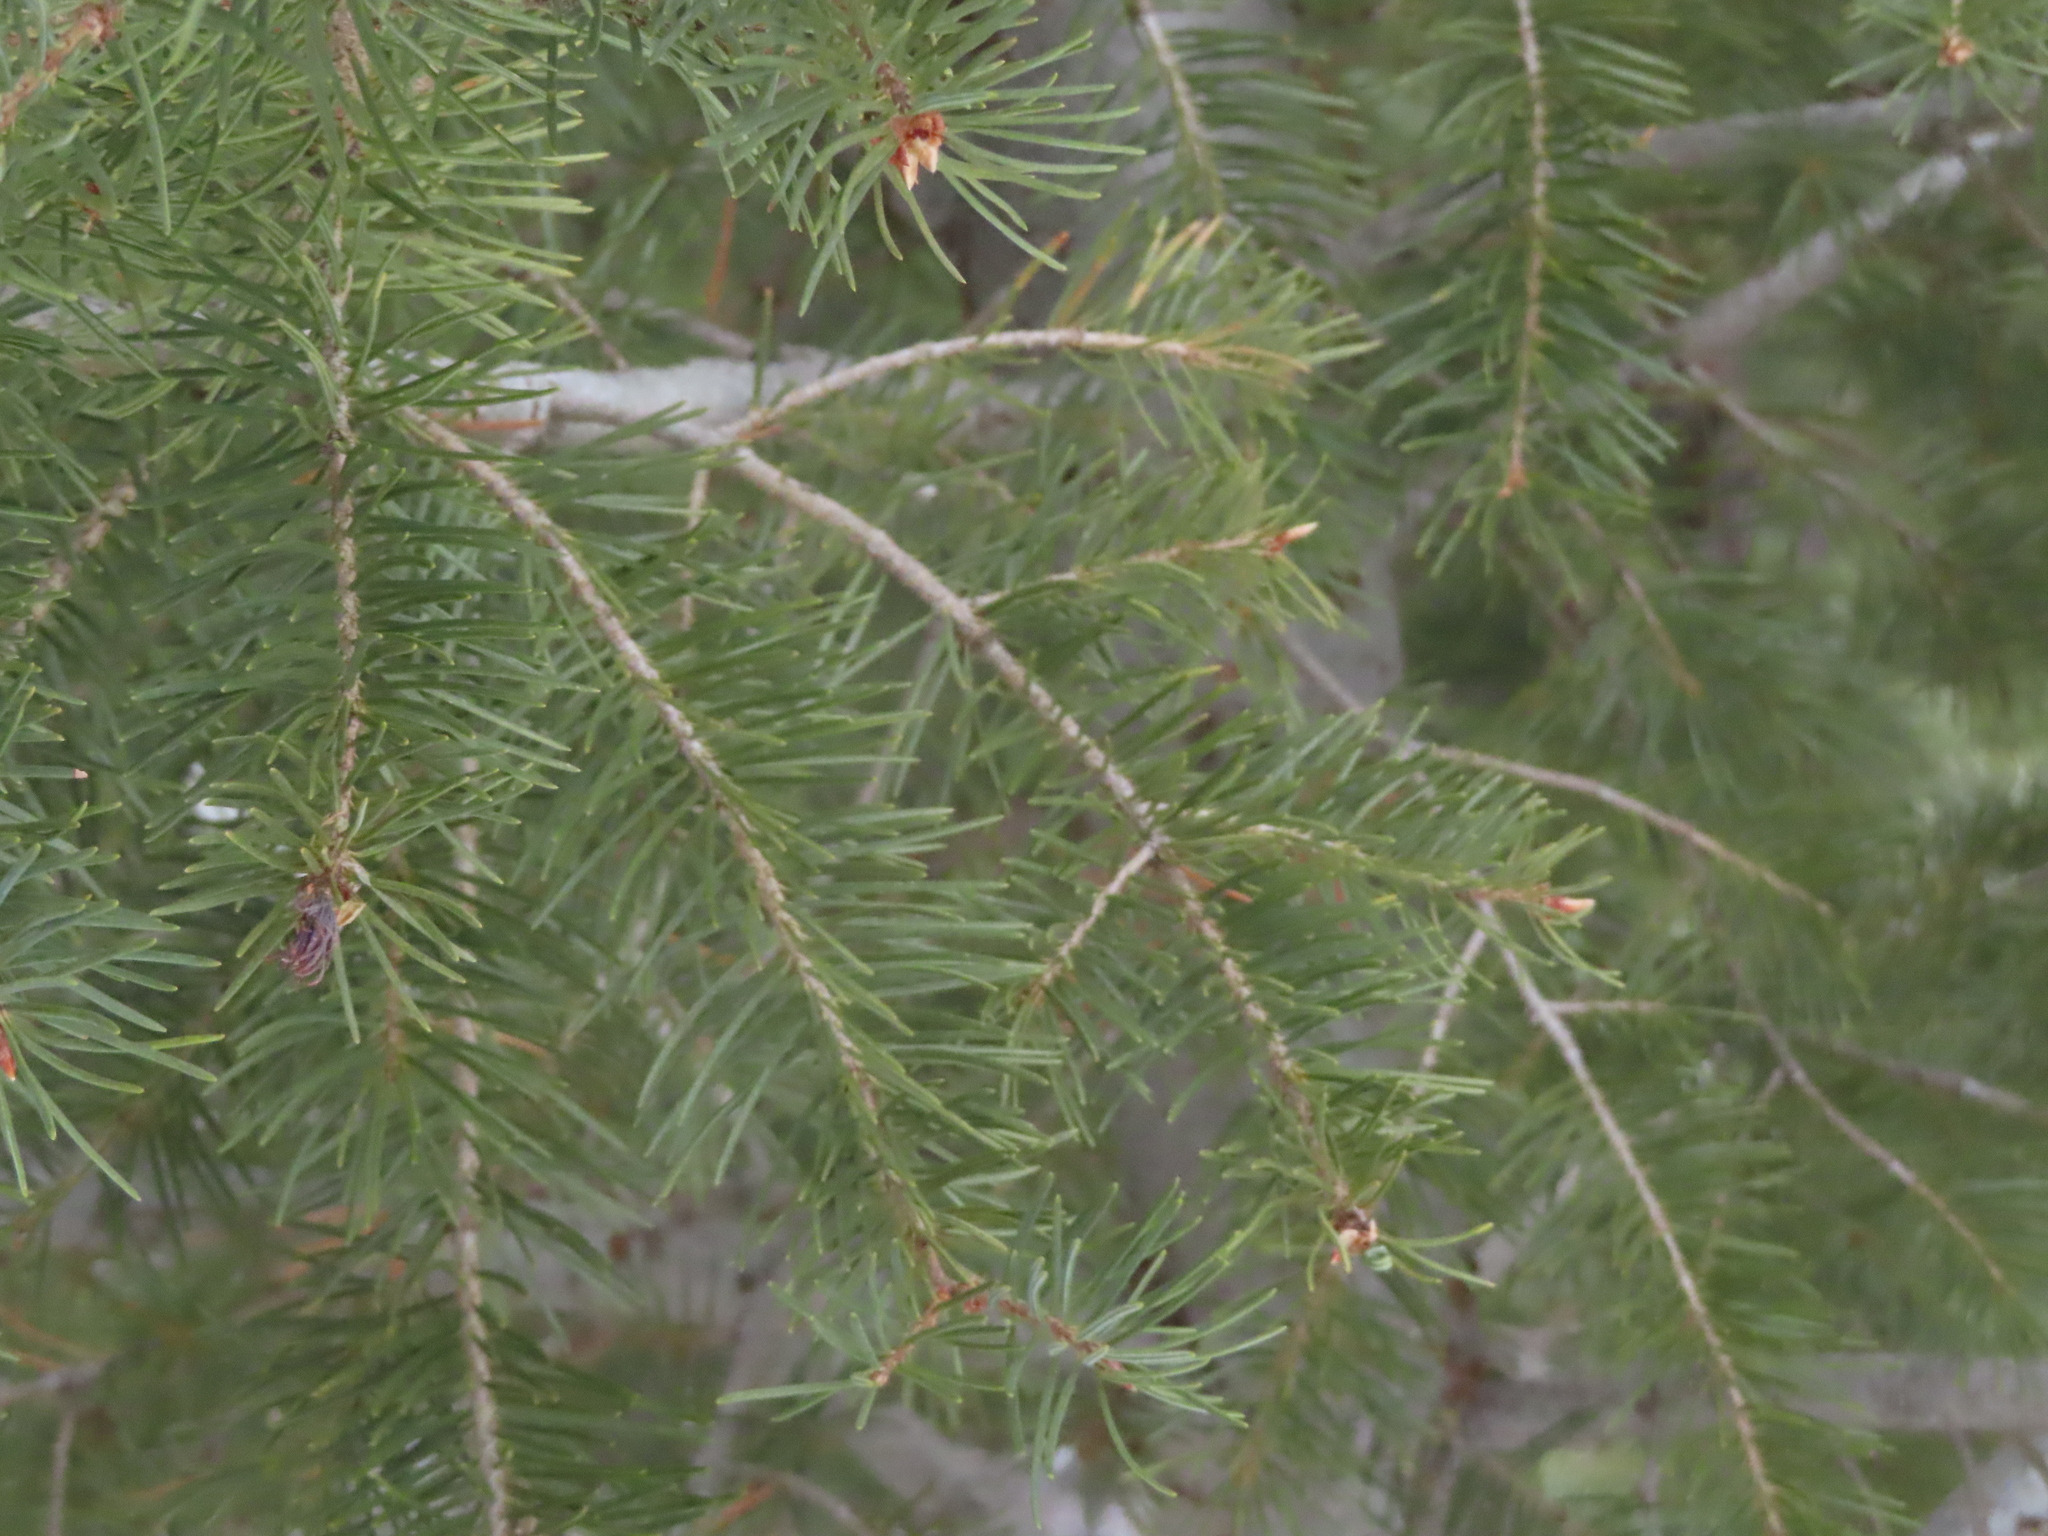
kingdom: Plantae
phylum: Tracheophyta
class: Pinopsida
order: Pinales
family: Pinaceae
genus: Pseudotsuga
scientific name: Pseudotsuga menziesii
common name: Douglas fir
